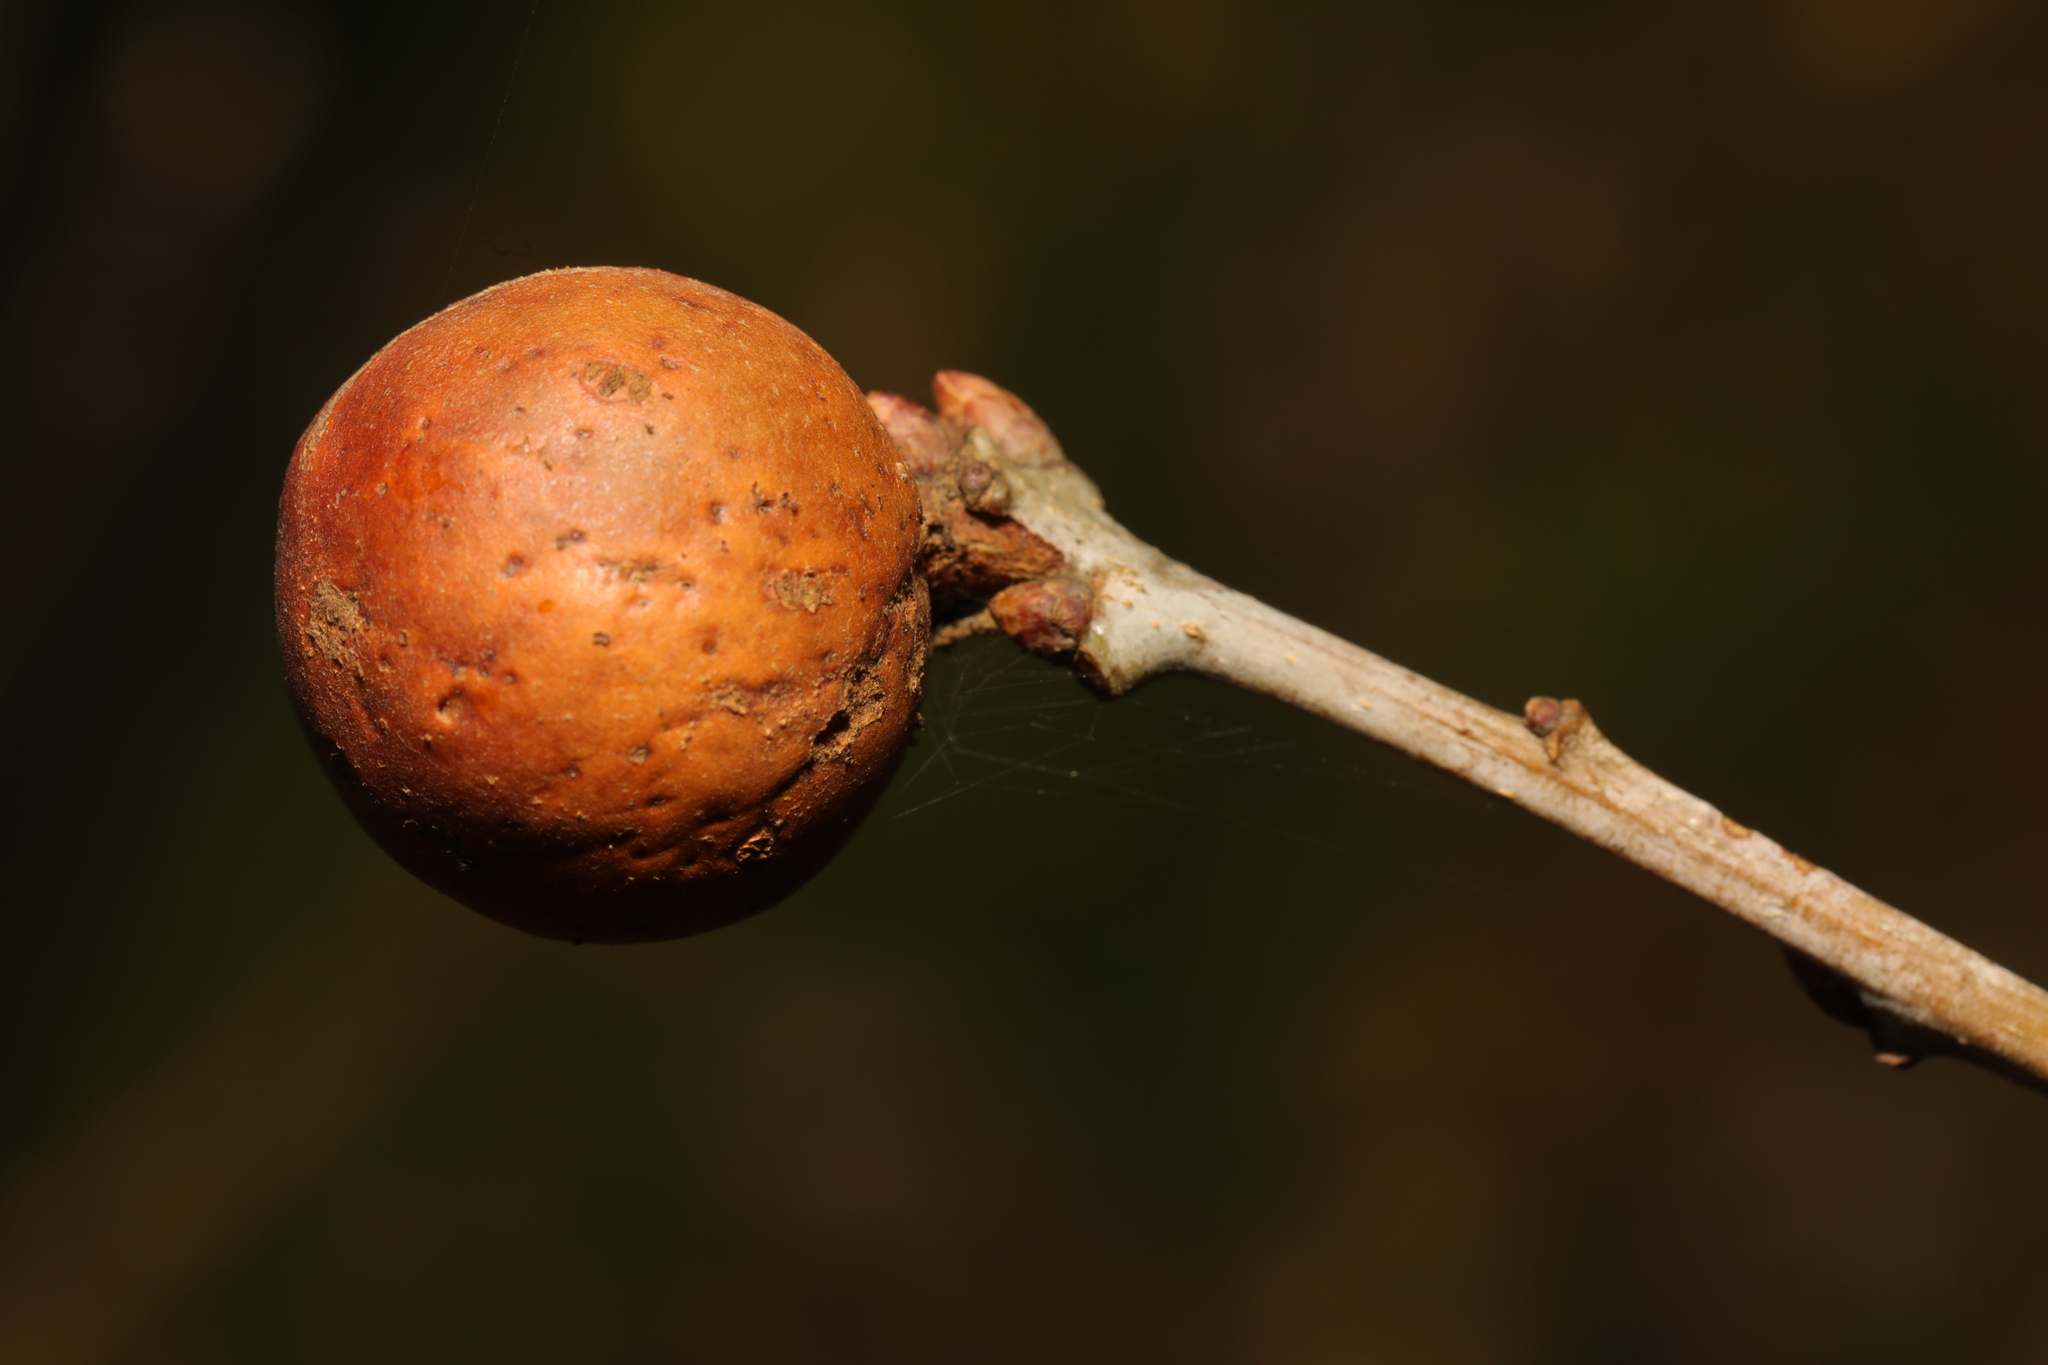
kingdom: Animalia
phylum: Arthropoda
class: Insecta
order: Hymenoptera
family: Cynipidae
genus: Andricus
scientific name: Andricus kollari
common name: Marble gall
